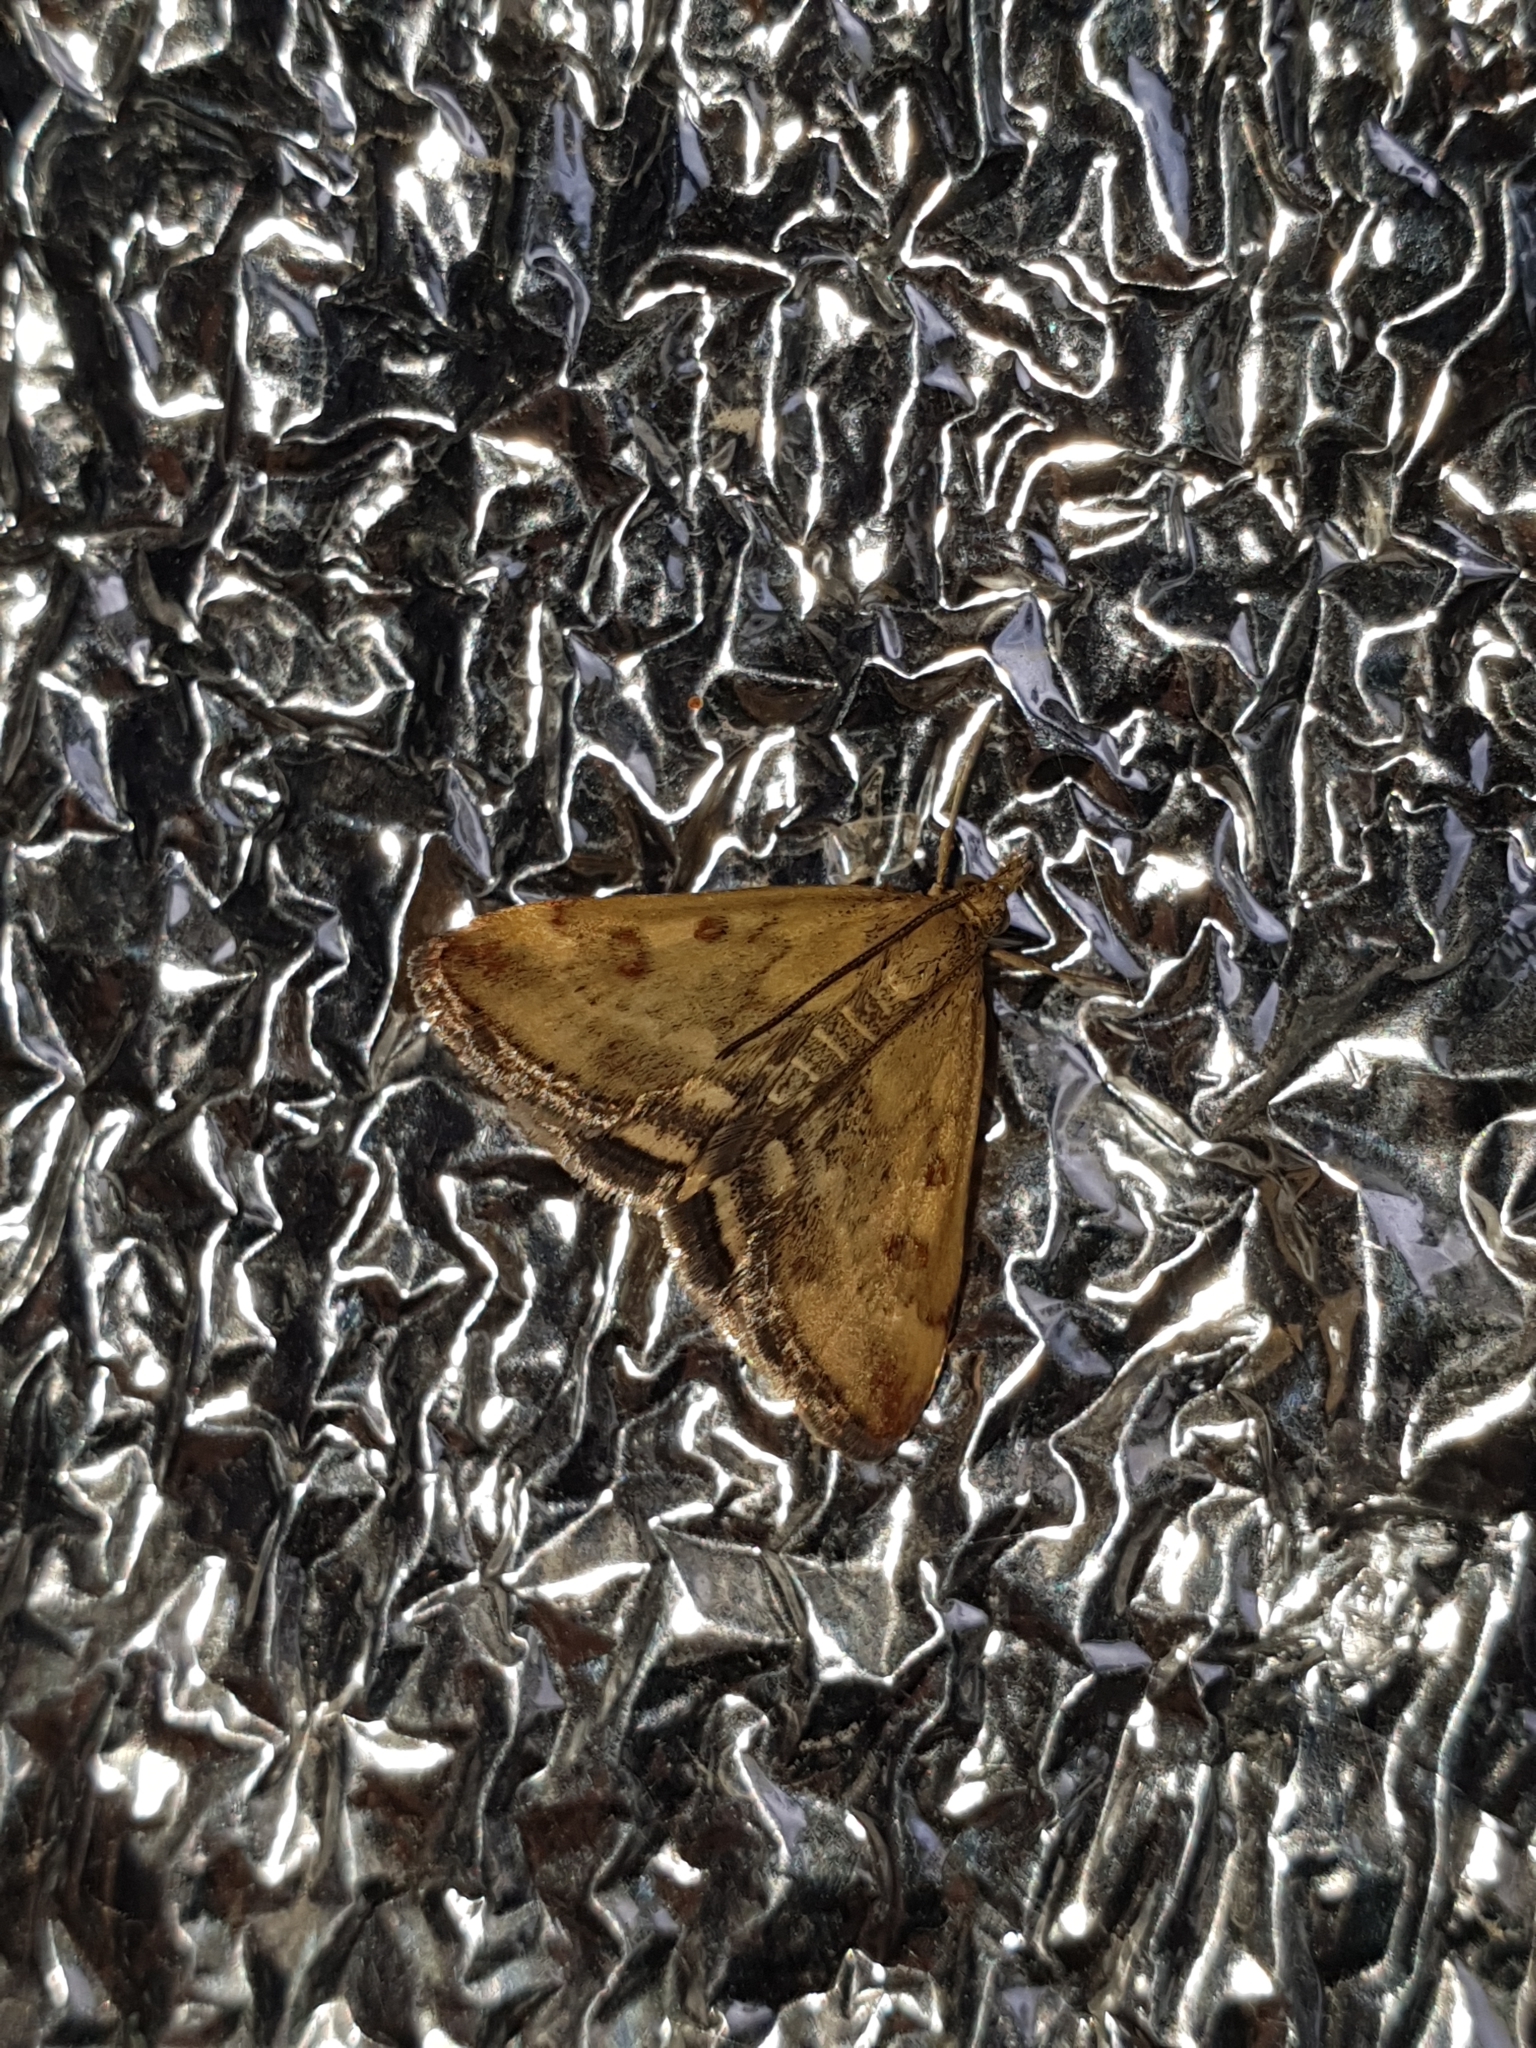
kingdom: Animalia
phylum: Arthropoda
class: Insecta
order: Lepidoptera
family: Crambidae
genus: Pyrausta
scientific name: Pyrausta despicata
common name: Straw-barred pearl
